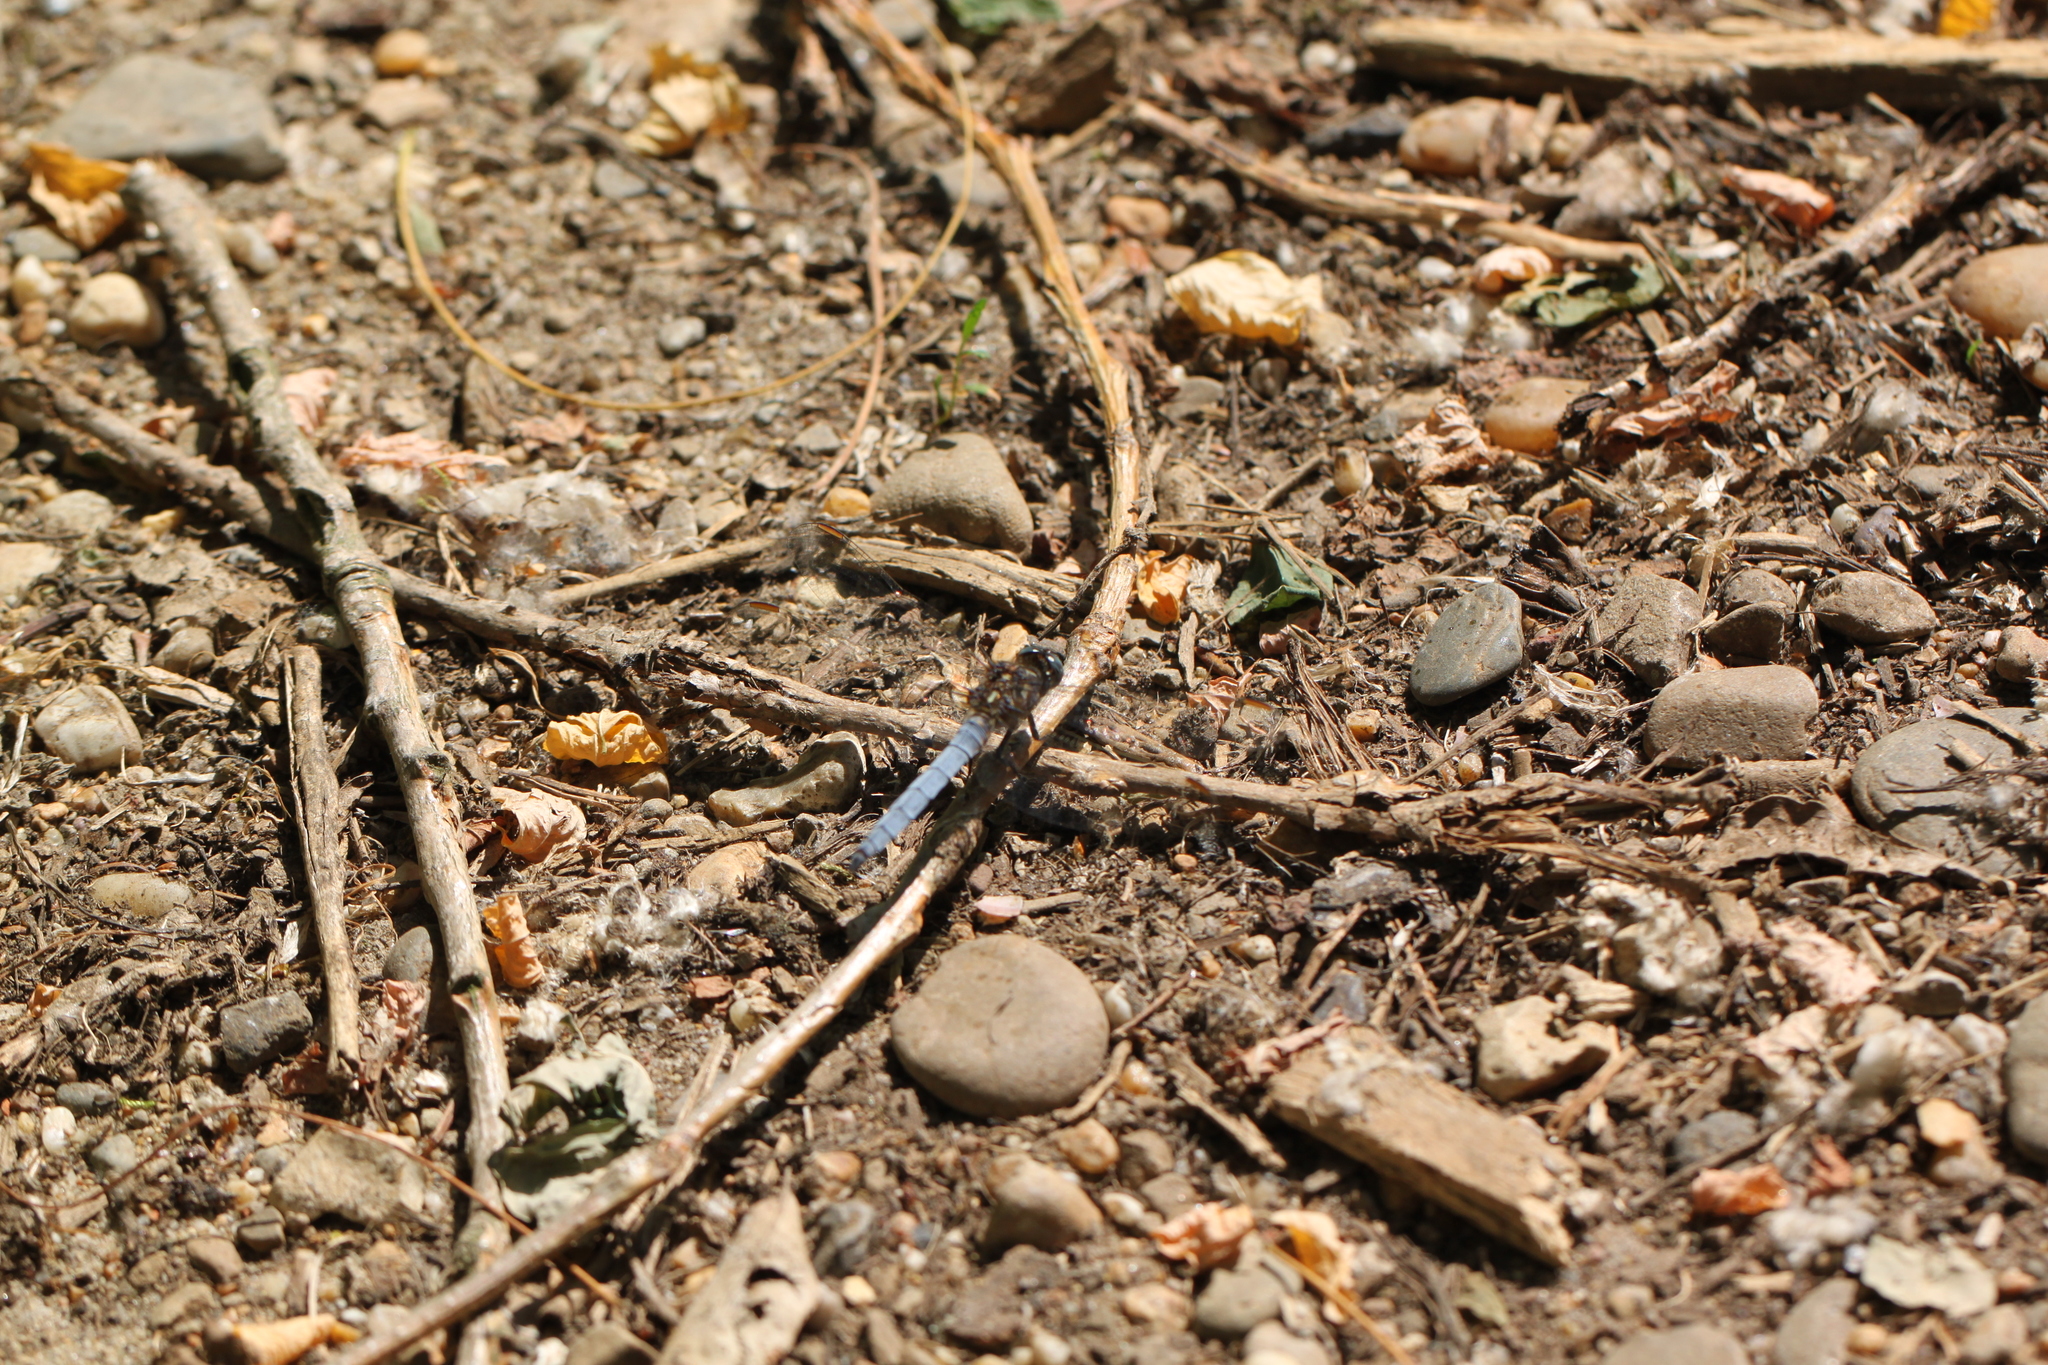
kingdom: Animalia
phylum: Arthropoda
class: Insecta
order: Odonata
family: Libellulidae
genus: Orthetrum
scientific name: Orthetrum coerulescens
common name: Keeled skimmer
